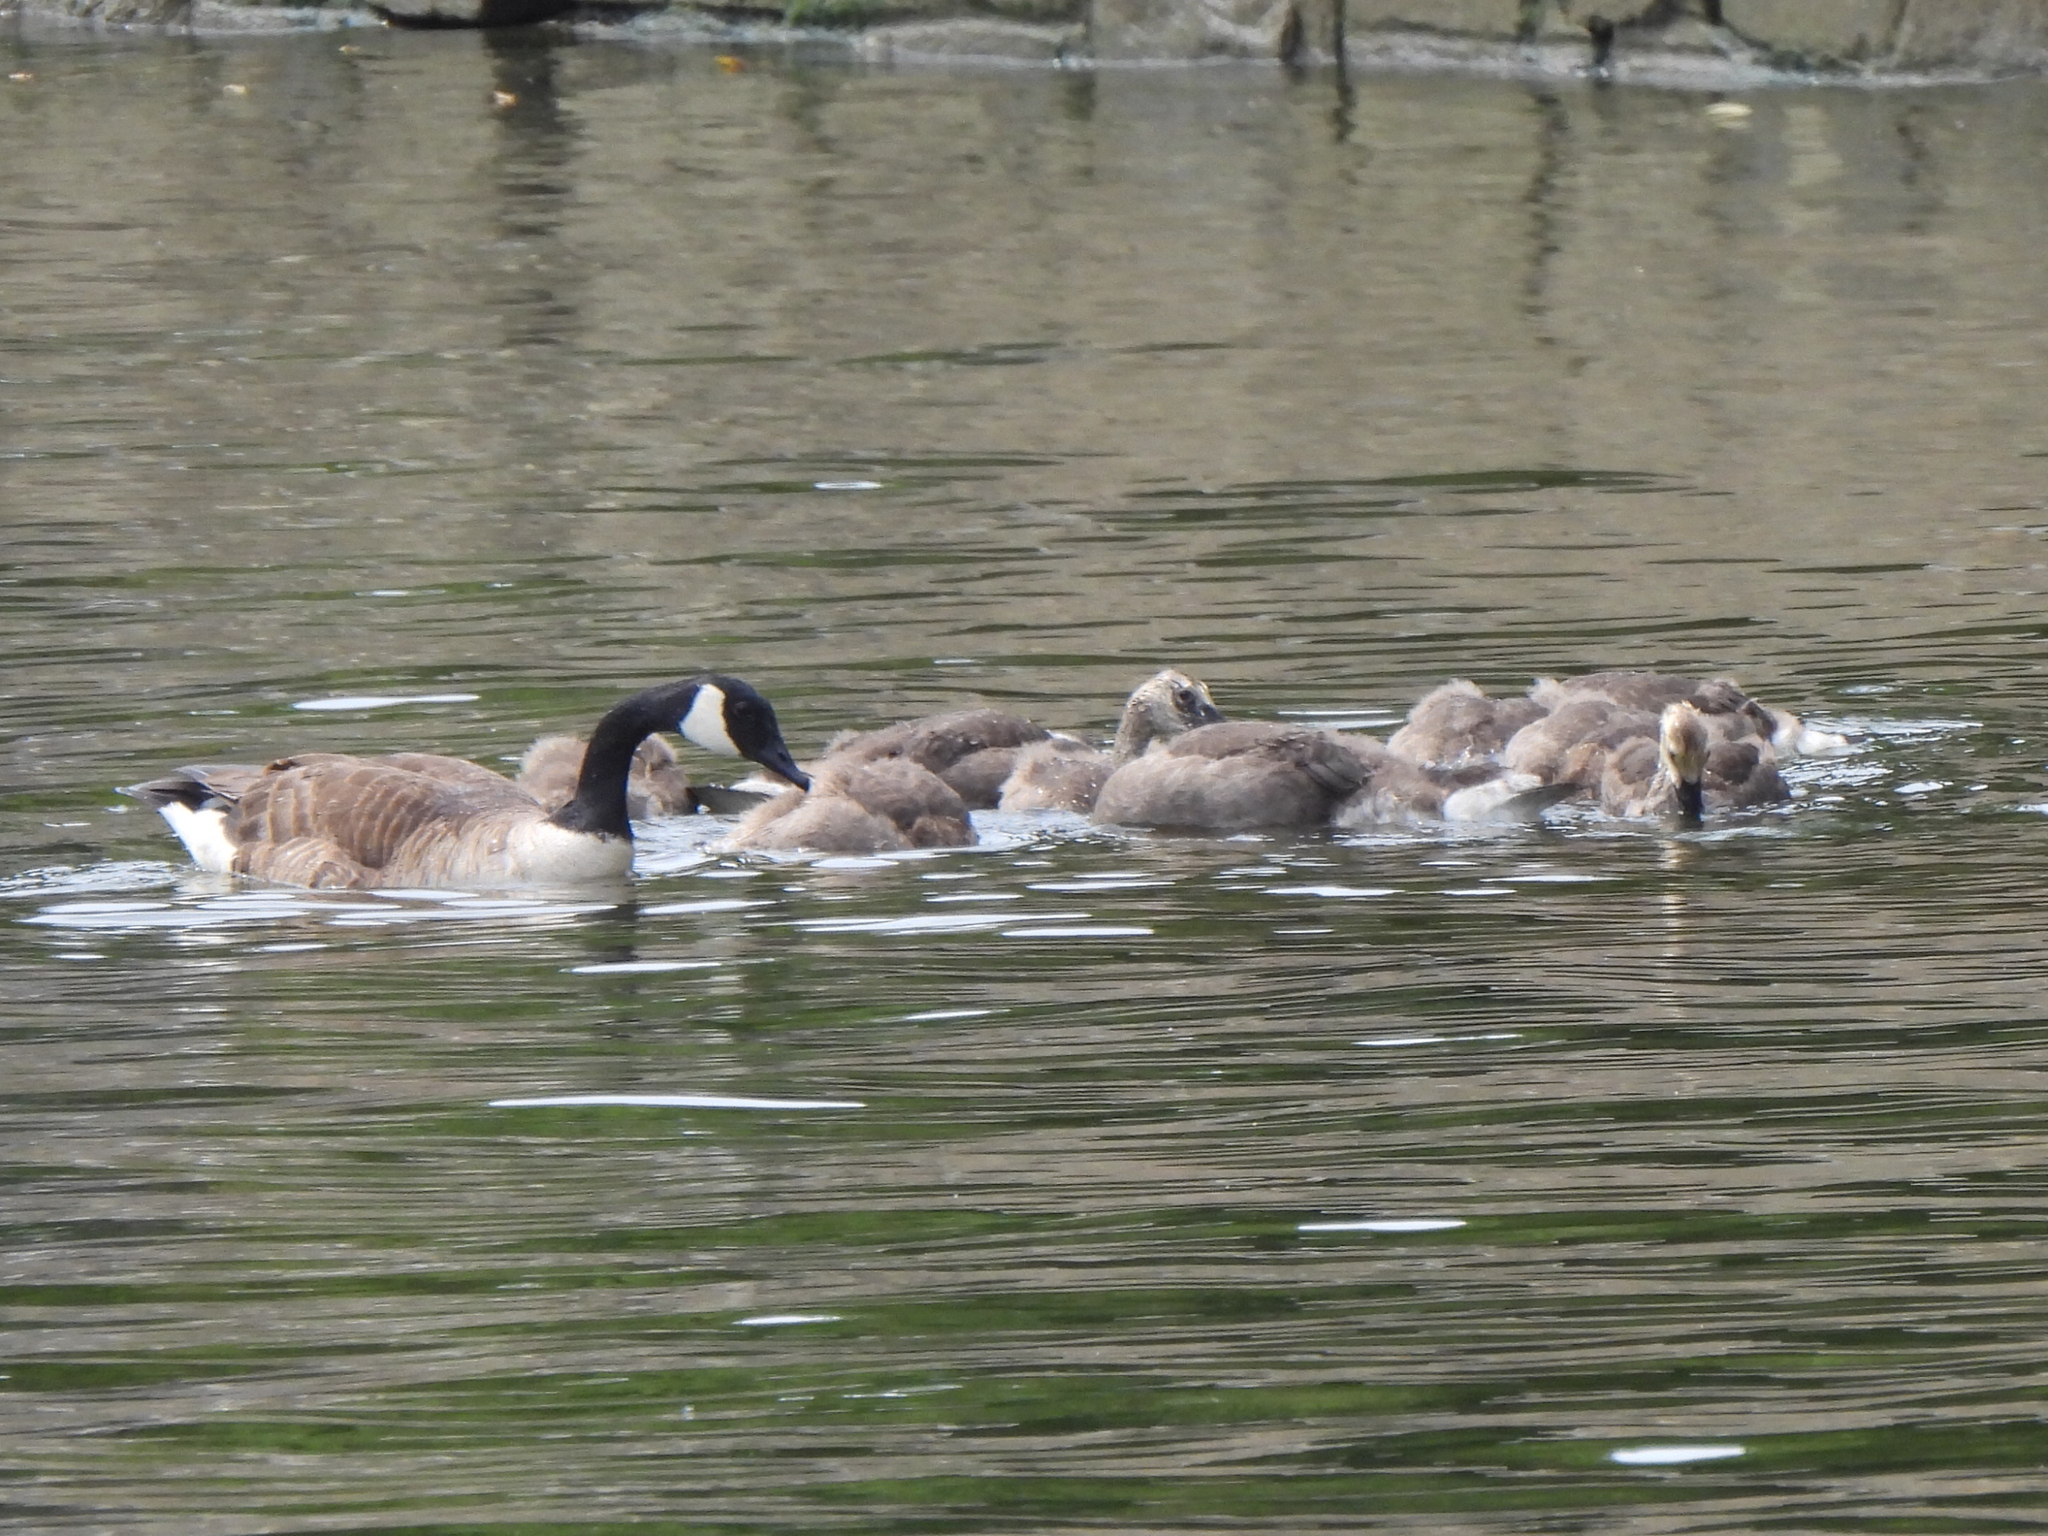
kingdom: Animalia
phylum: Chordata
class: Aves
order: Anseriformes
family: Anatidae
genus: Branta
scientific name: Branta canadensis
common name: Canada goose
